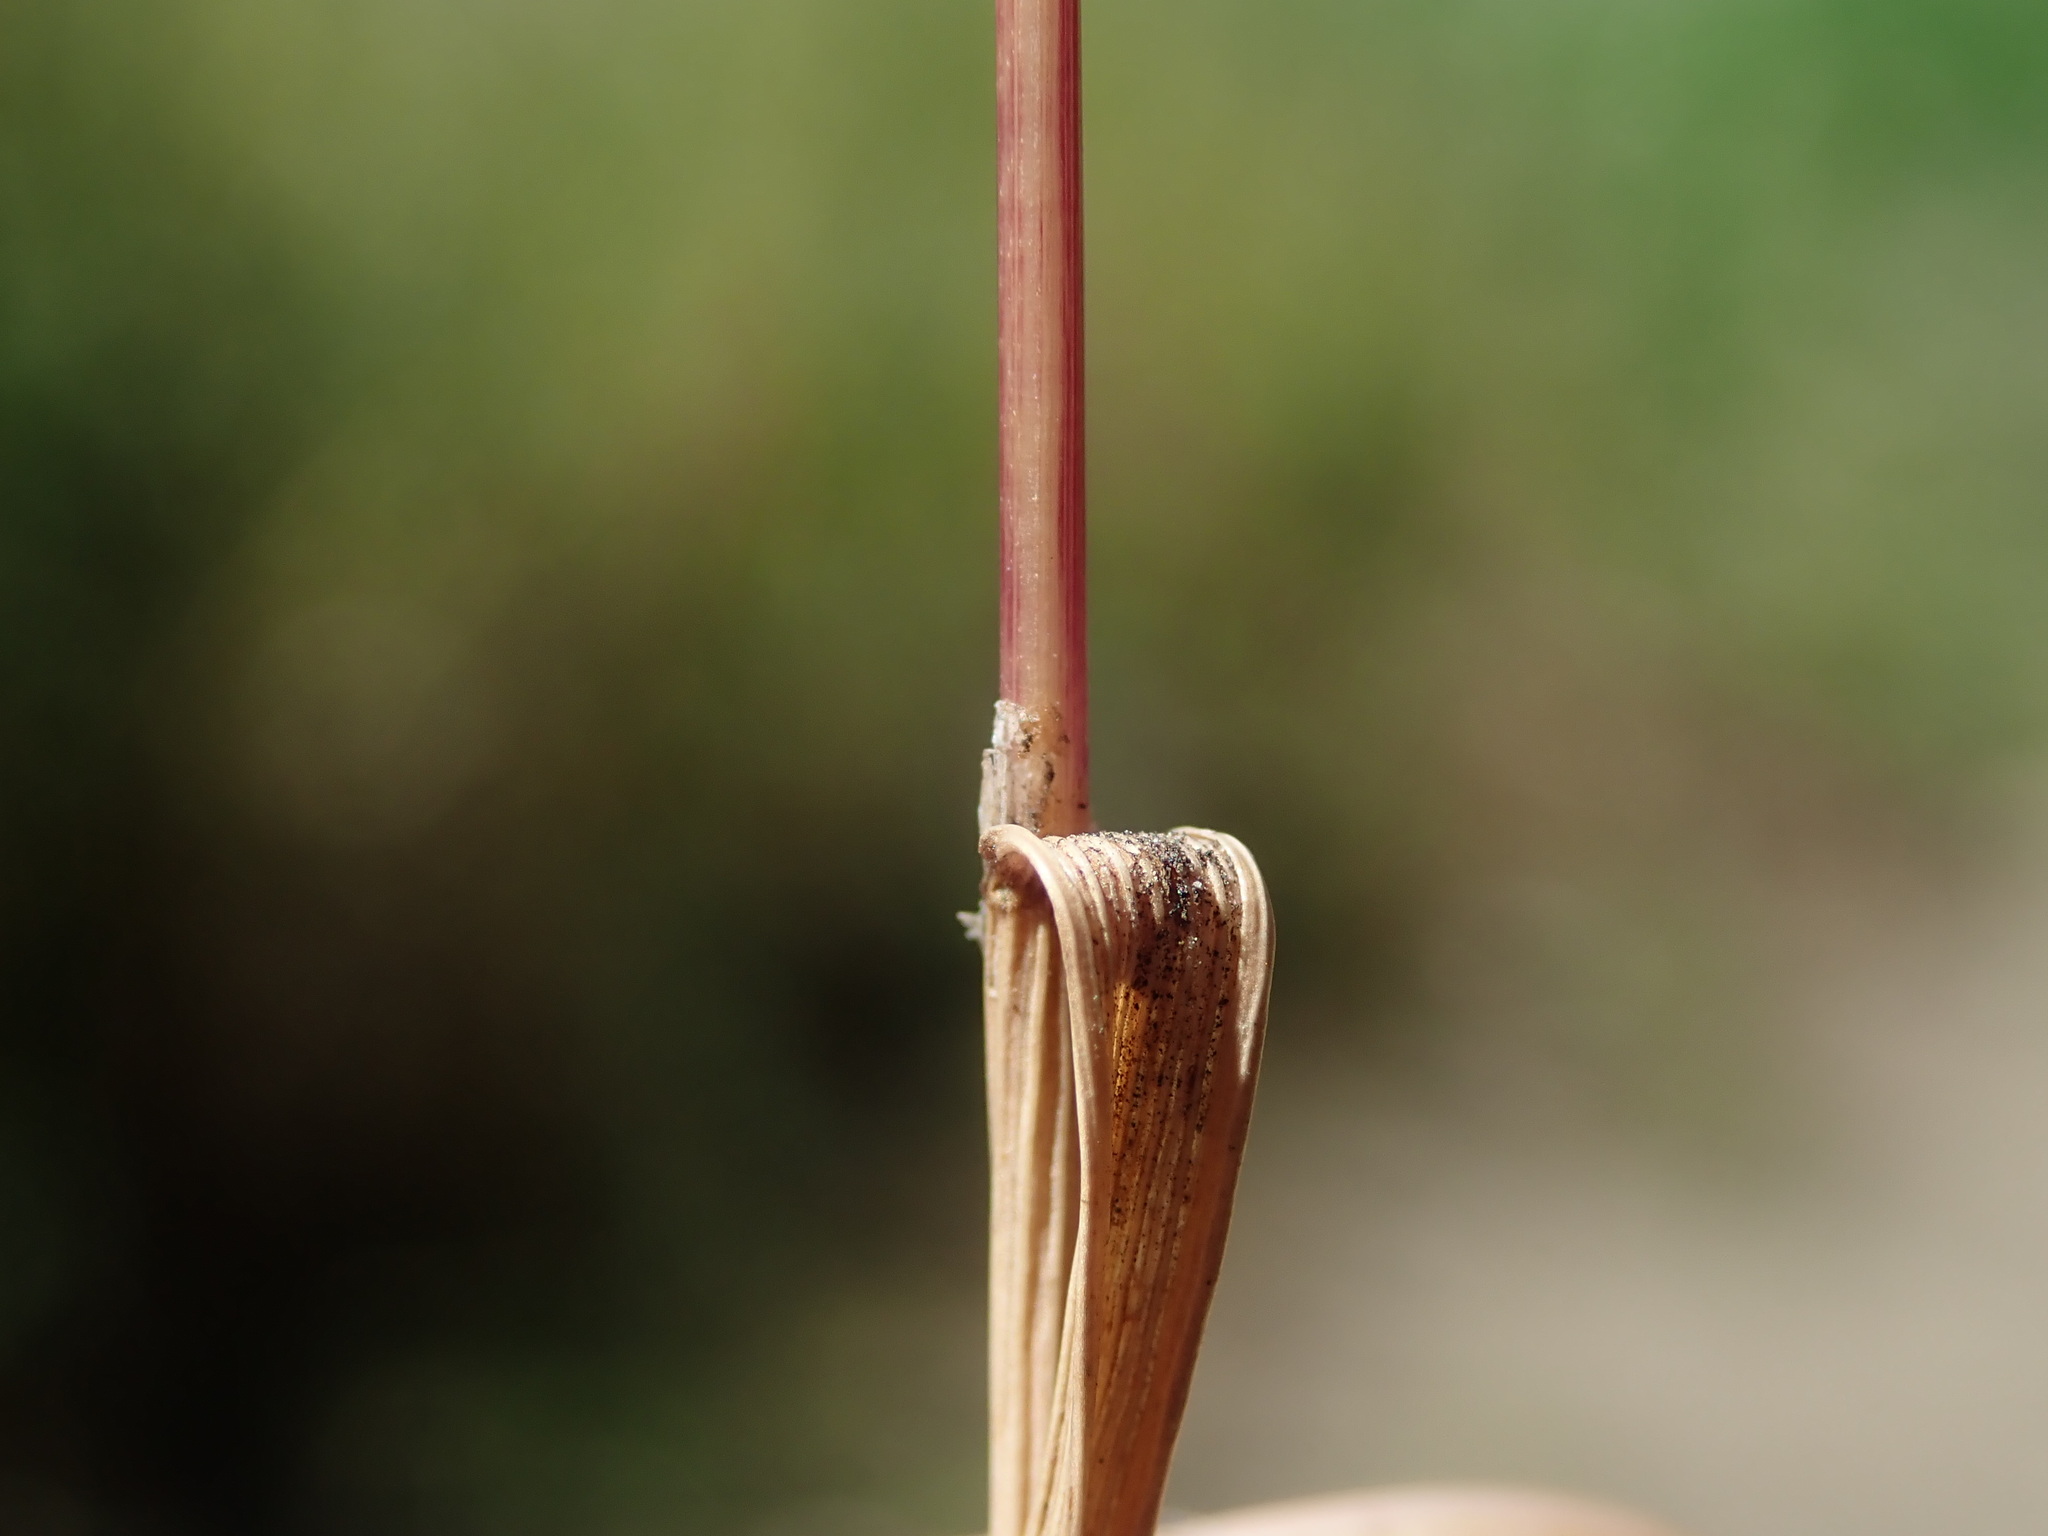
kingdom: Plantae
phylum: Tracheophyta
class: Liliopsida
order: Poales
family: Poaceae
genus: Catapodium
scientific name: Catapodium rigidum
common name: Fern-grass
